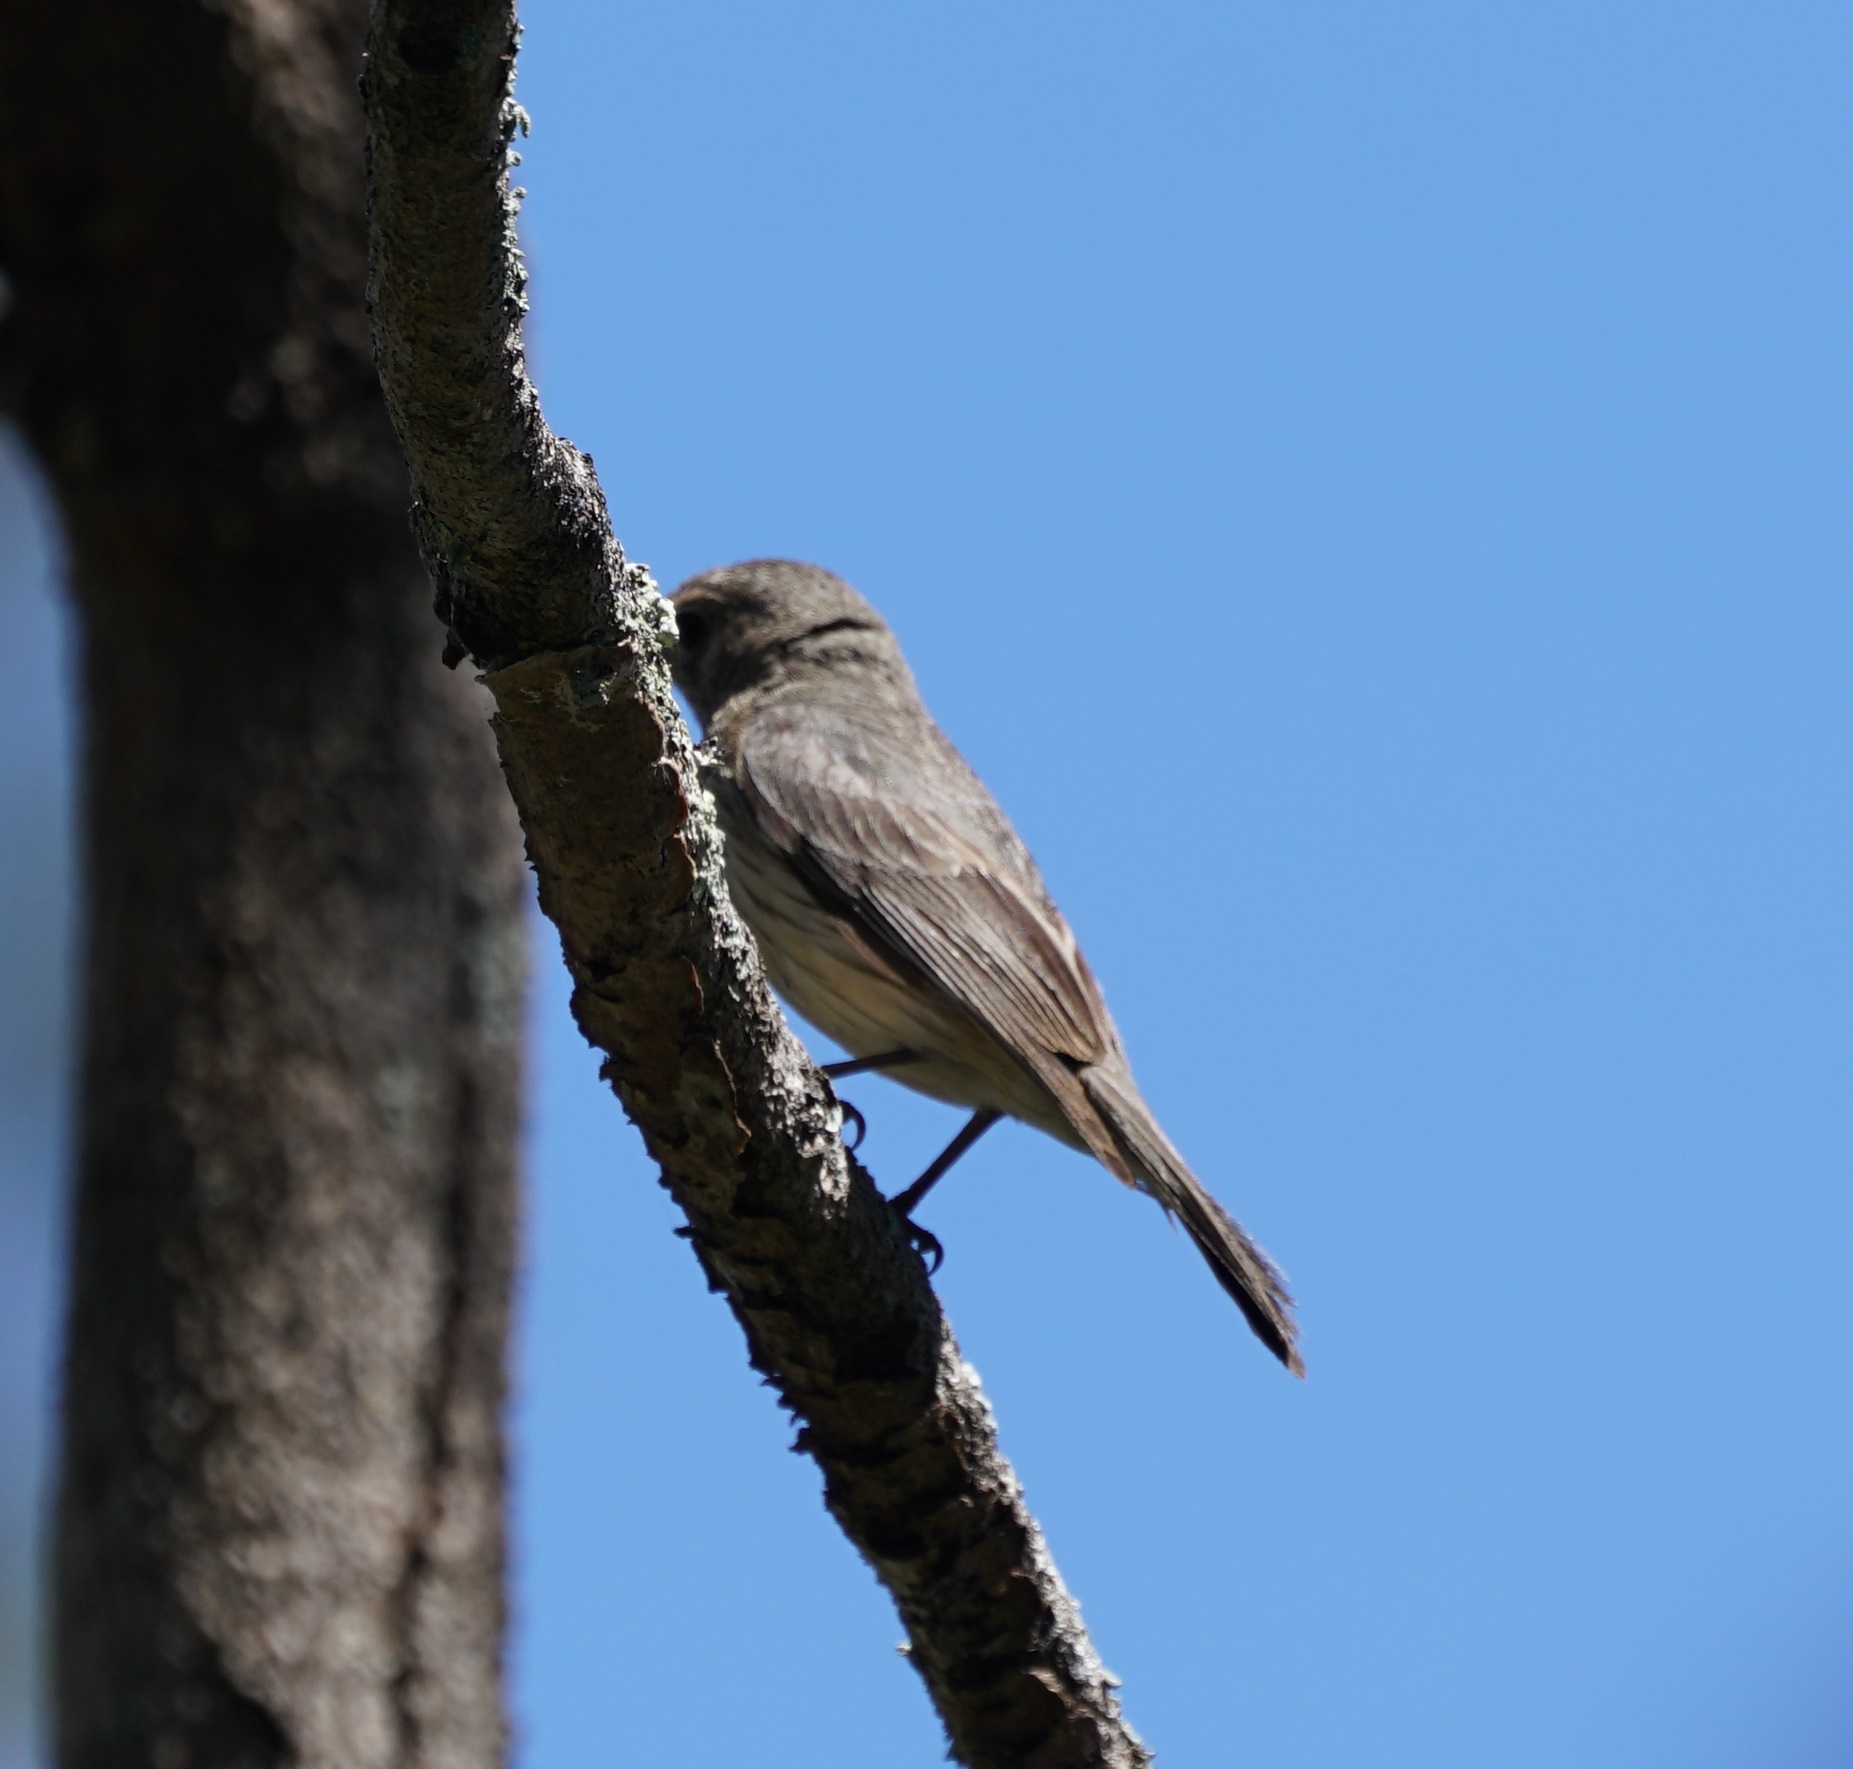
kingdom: Animalia
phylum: Chordata
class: Aves
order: Passeriformes
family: Pachycephalidae
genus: Pachycephala
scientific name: Pachycephala rufiventris
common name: Rufous whistler
